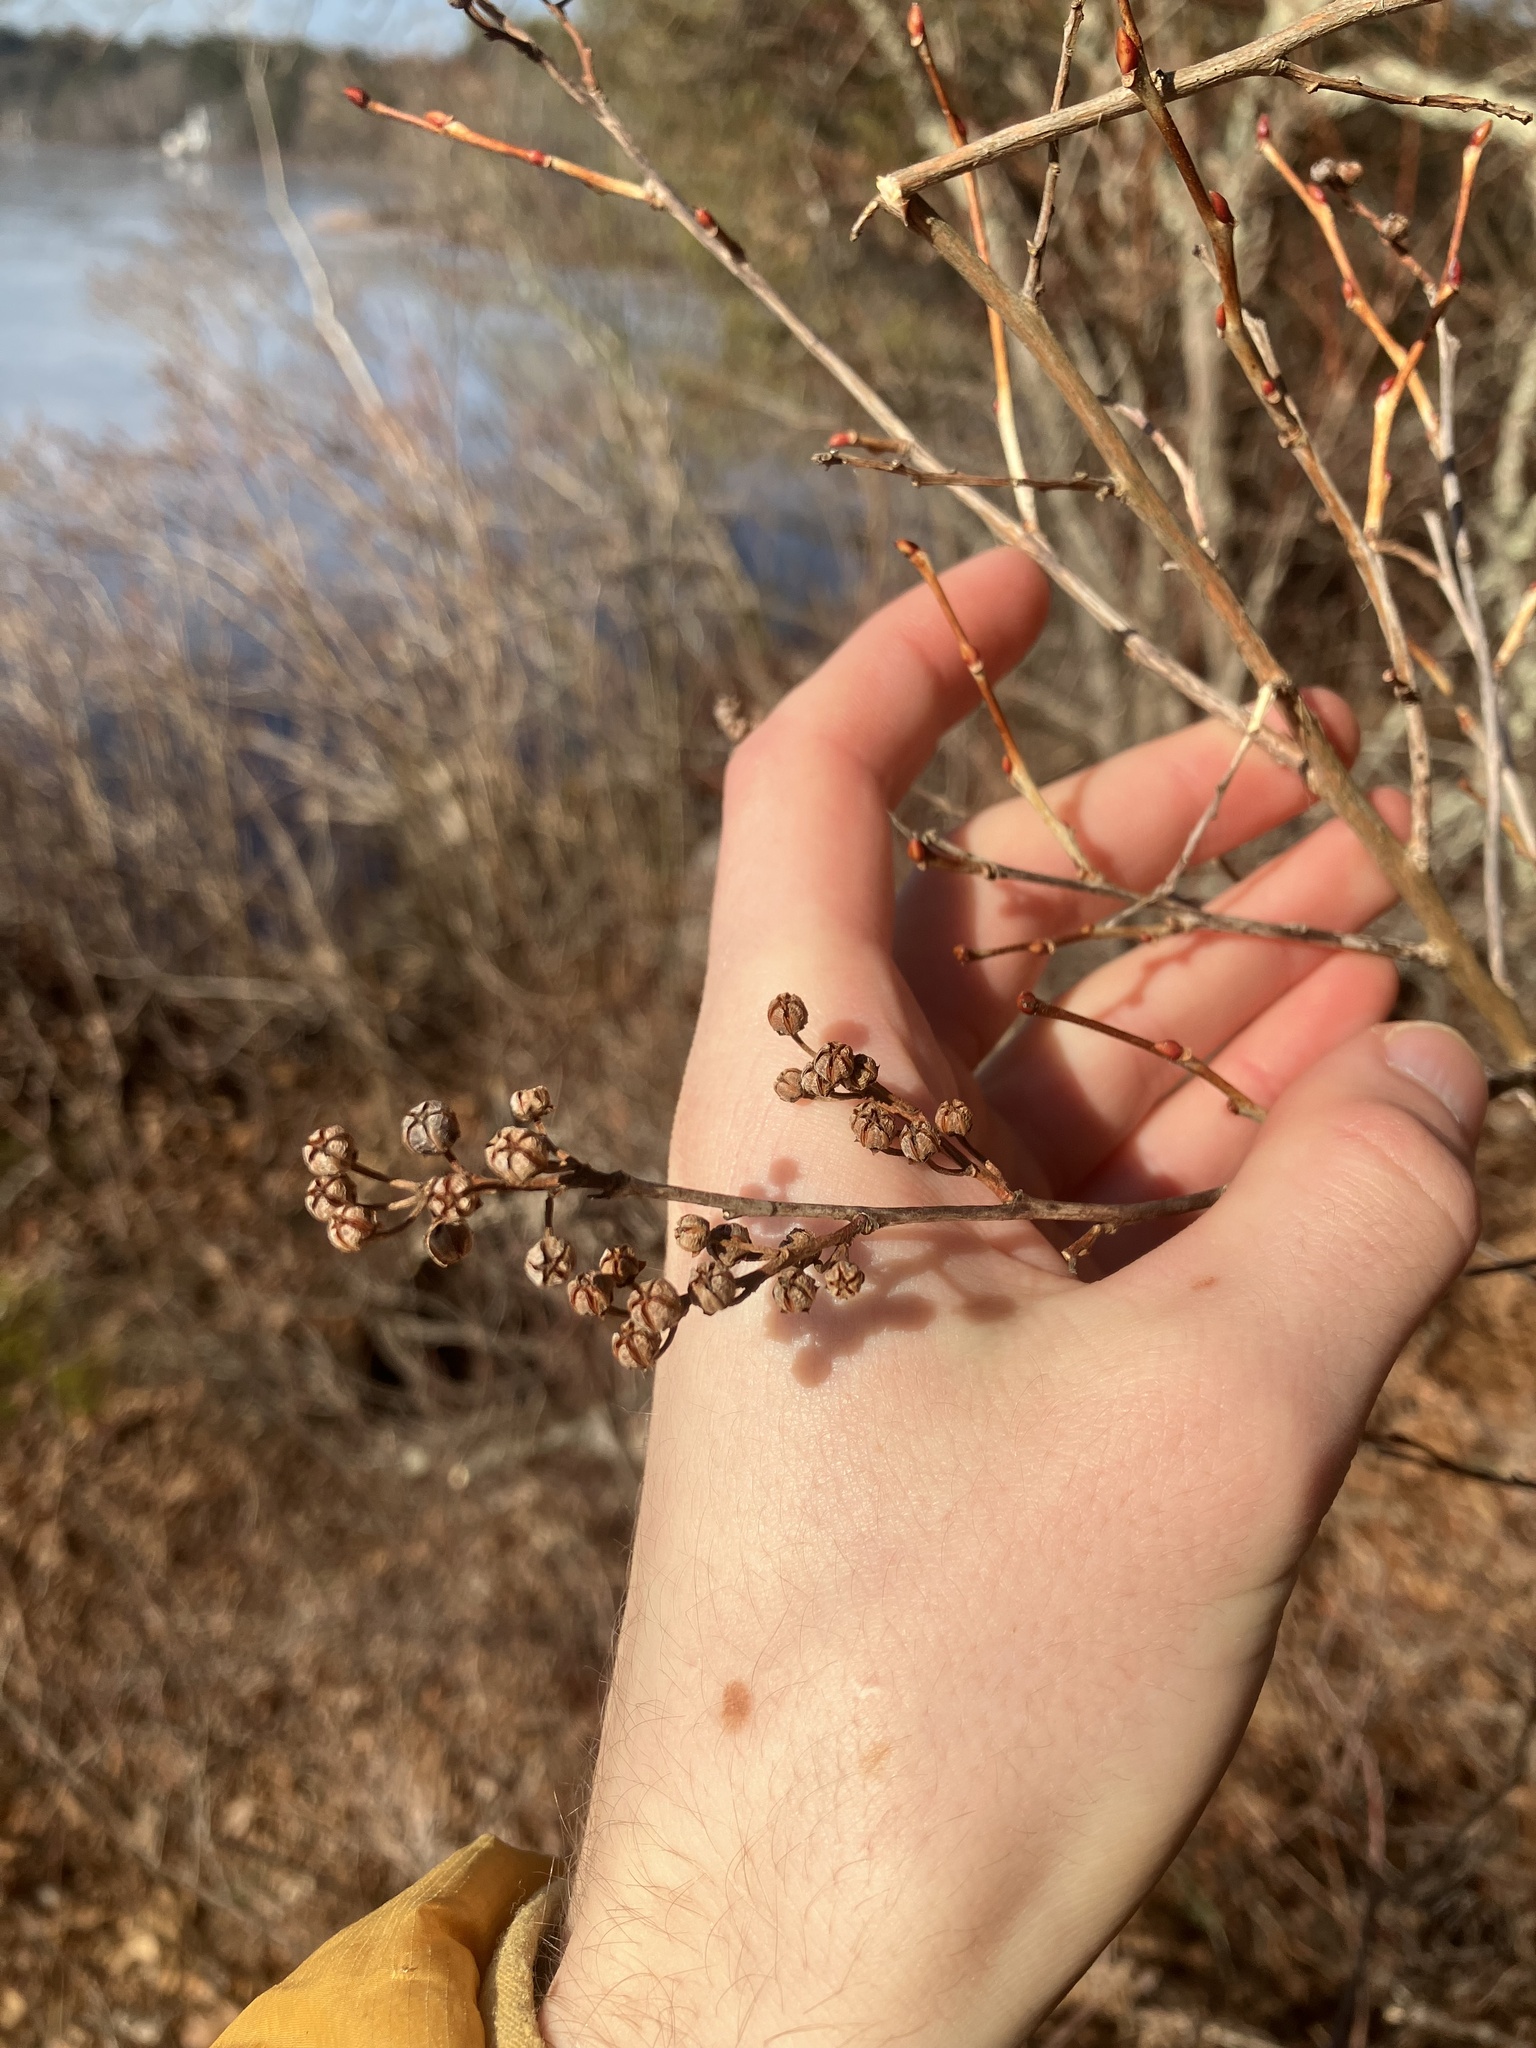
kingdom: Plantae
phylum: Tracheophyta
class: Magnoliopsida
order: Ericales
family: Ericaceae
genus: Lyonia
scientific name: Lyonia ligustrina
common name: Maleberry
